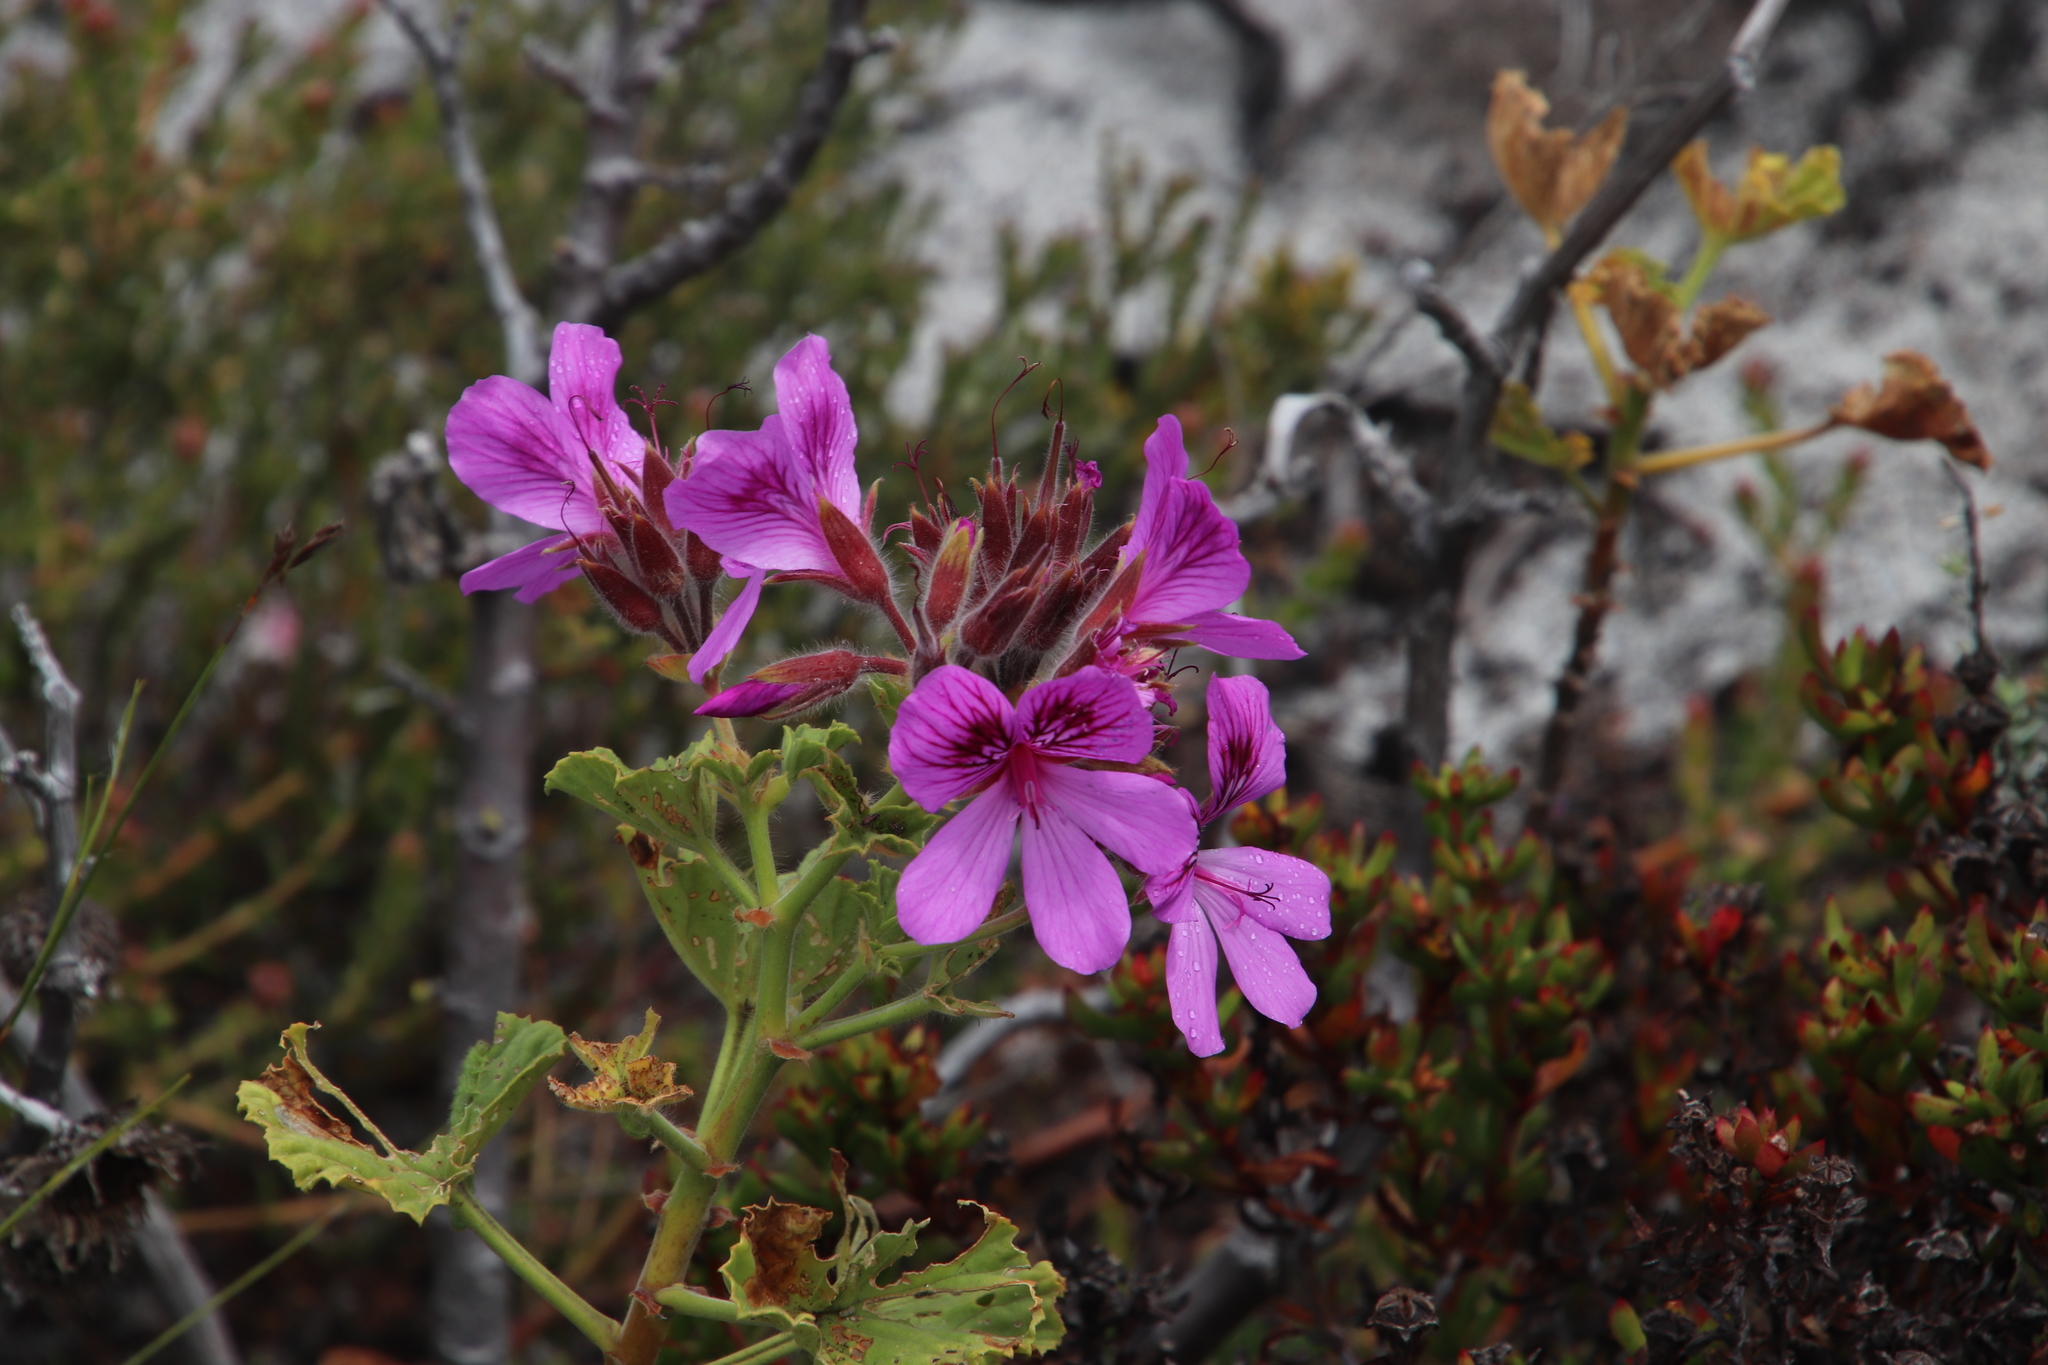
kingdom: Plantae
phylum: Tracheophyta
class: Magnoliopsida
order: Geraniales
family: Geraniaceae
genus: Pelargonium
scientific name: Pelargonium cucullatum
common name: Tree pelargonium
